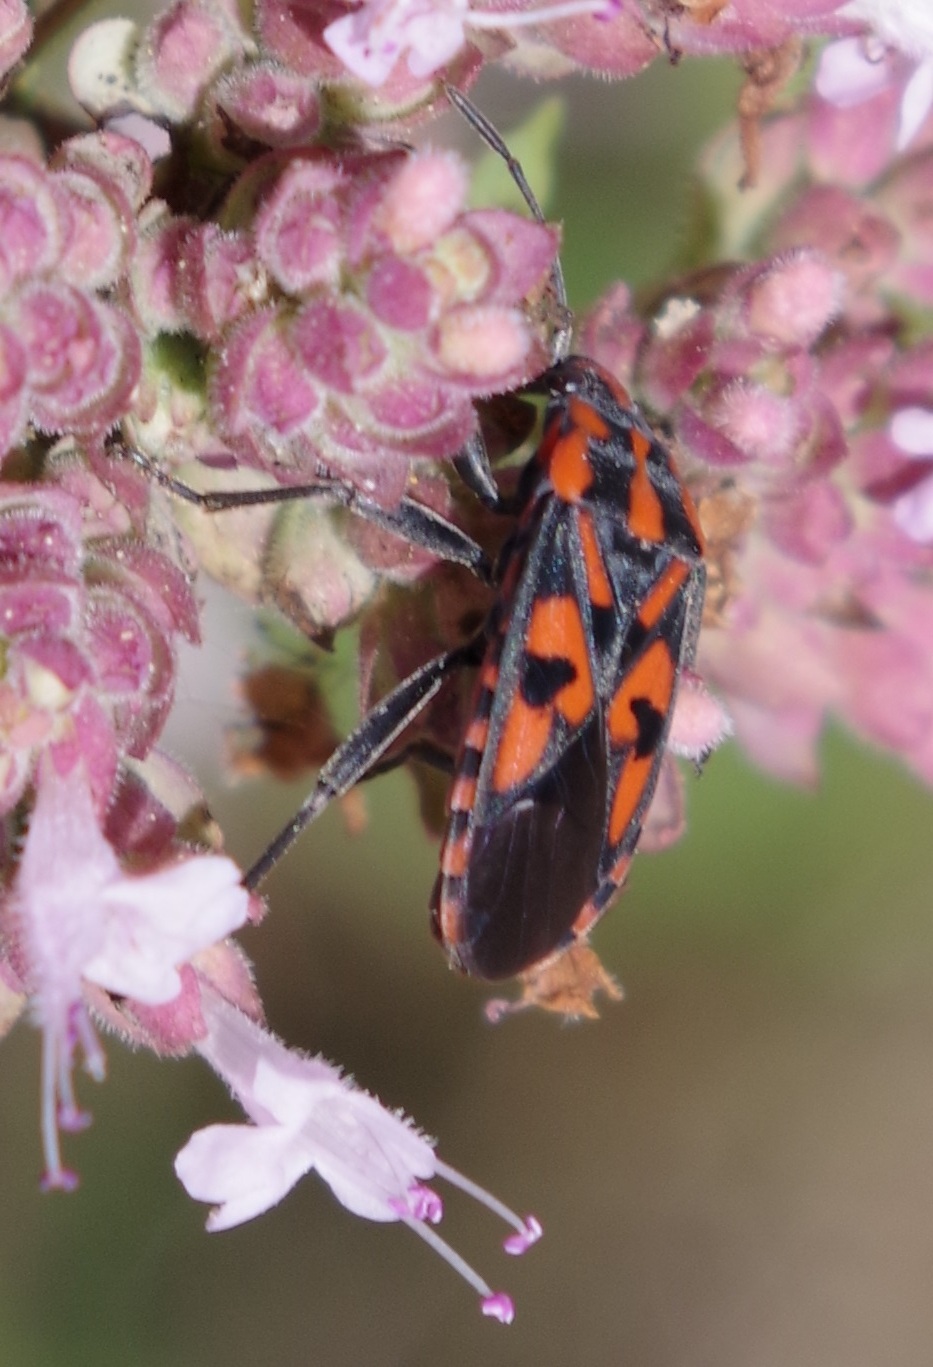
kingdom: Animalia
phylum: Arthropoda
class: Insecta
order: Hemiptera
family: Lygaeidae
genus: Spilostethus
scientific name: Spilostethus saxatilis
